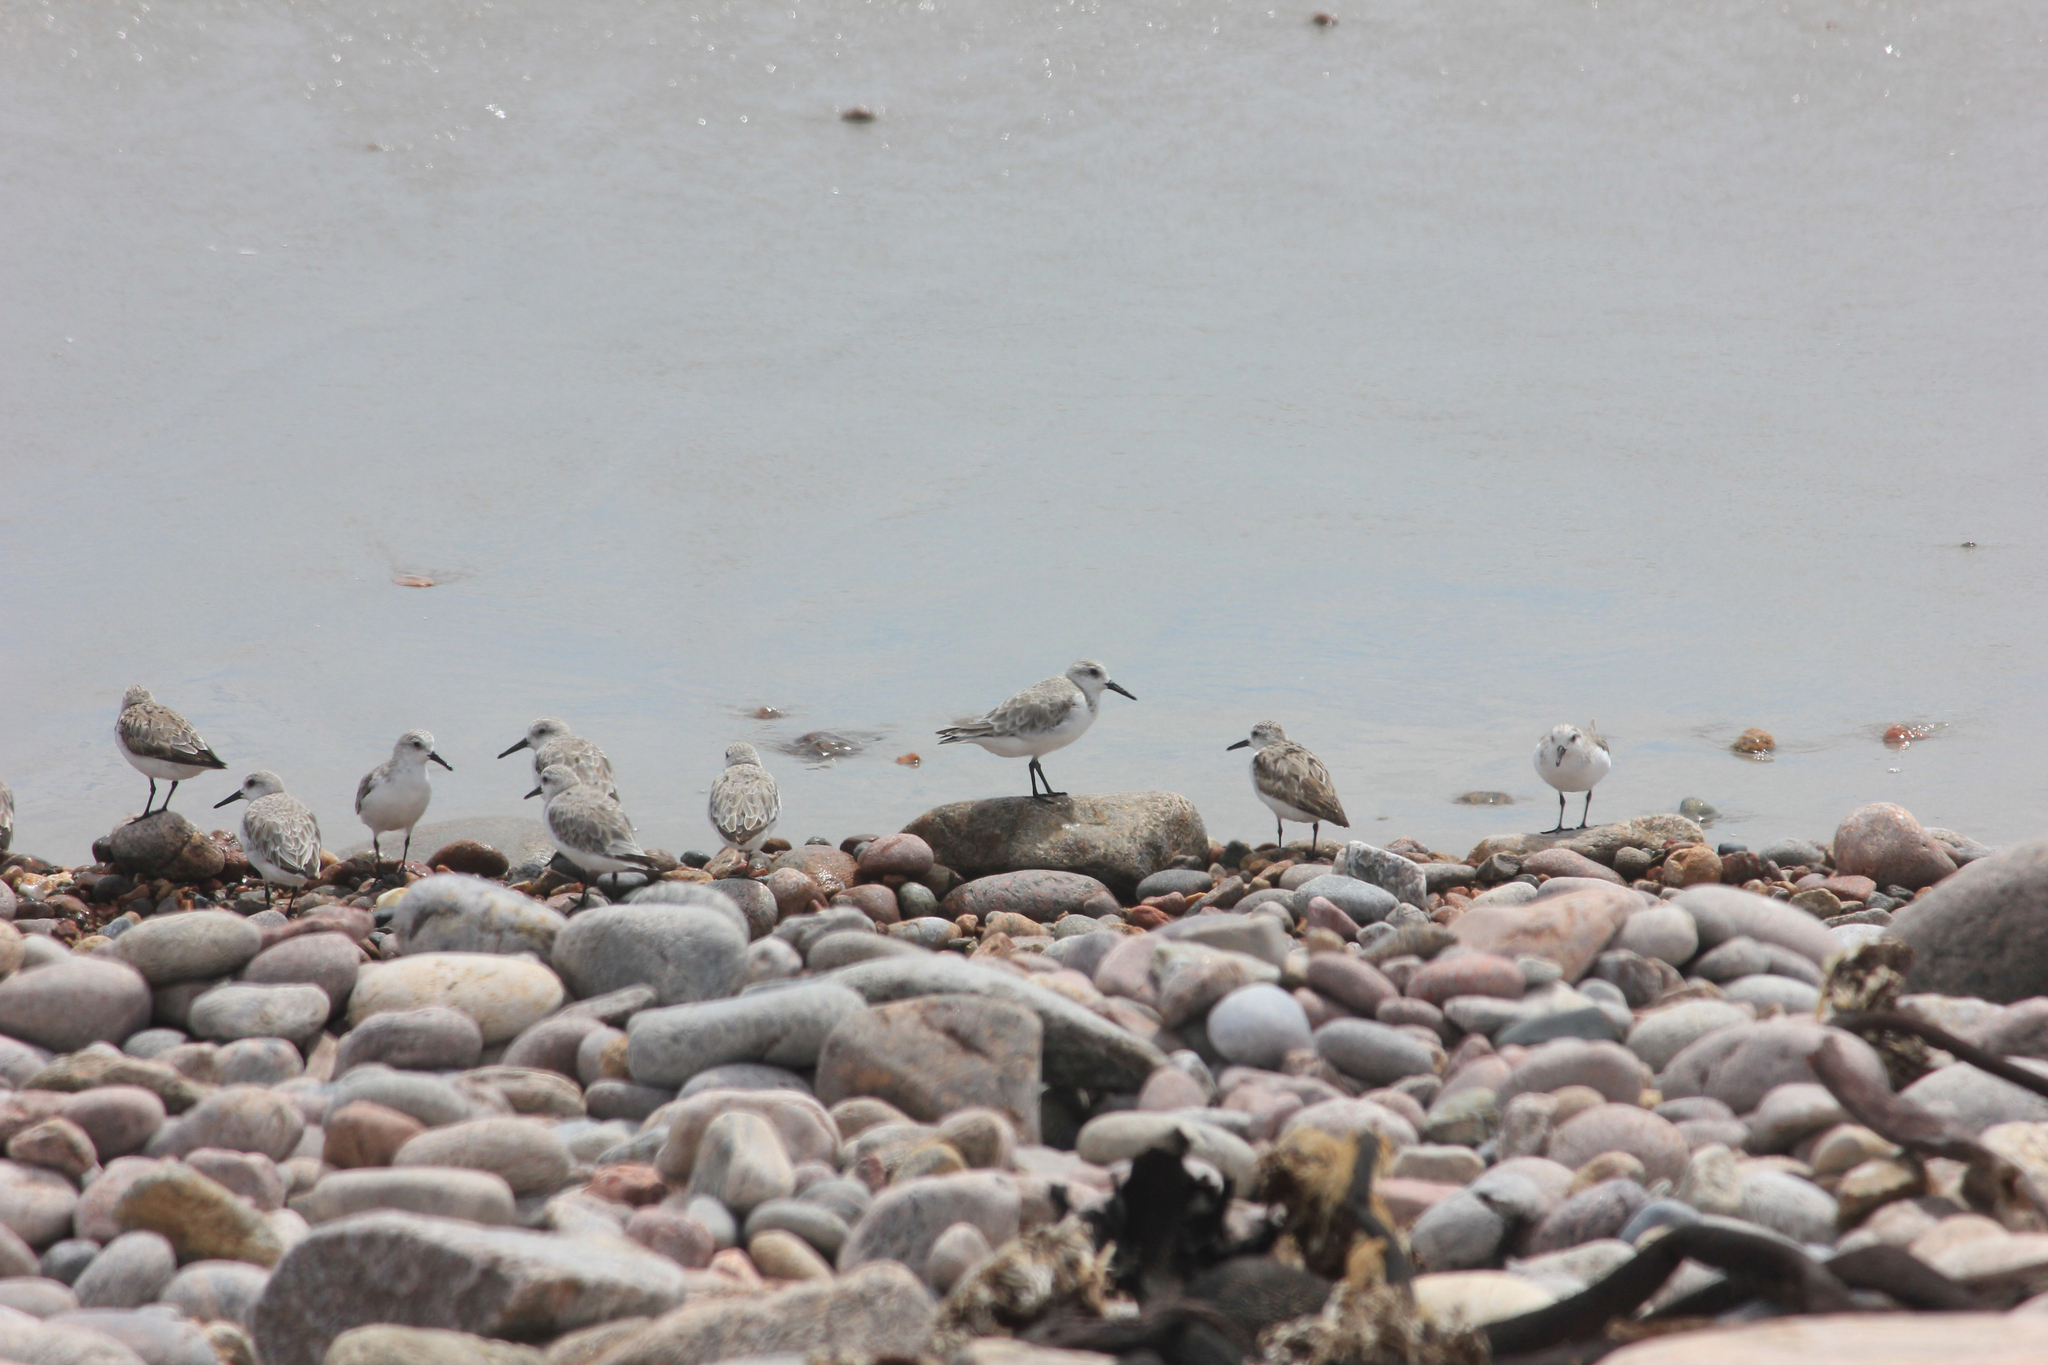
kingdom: Animalia
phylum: Chordata
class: Aves
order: Charadriiformes
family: Scolopacidae
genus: Calidris
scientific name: Calidris alba
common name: Sanderling
